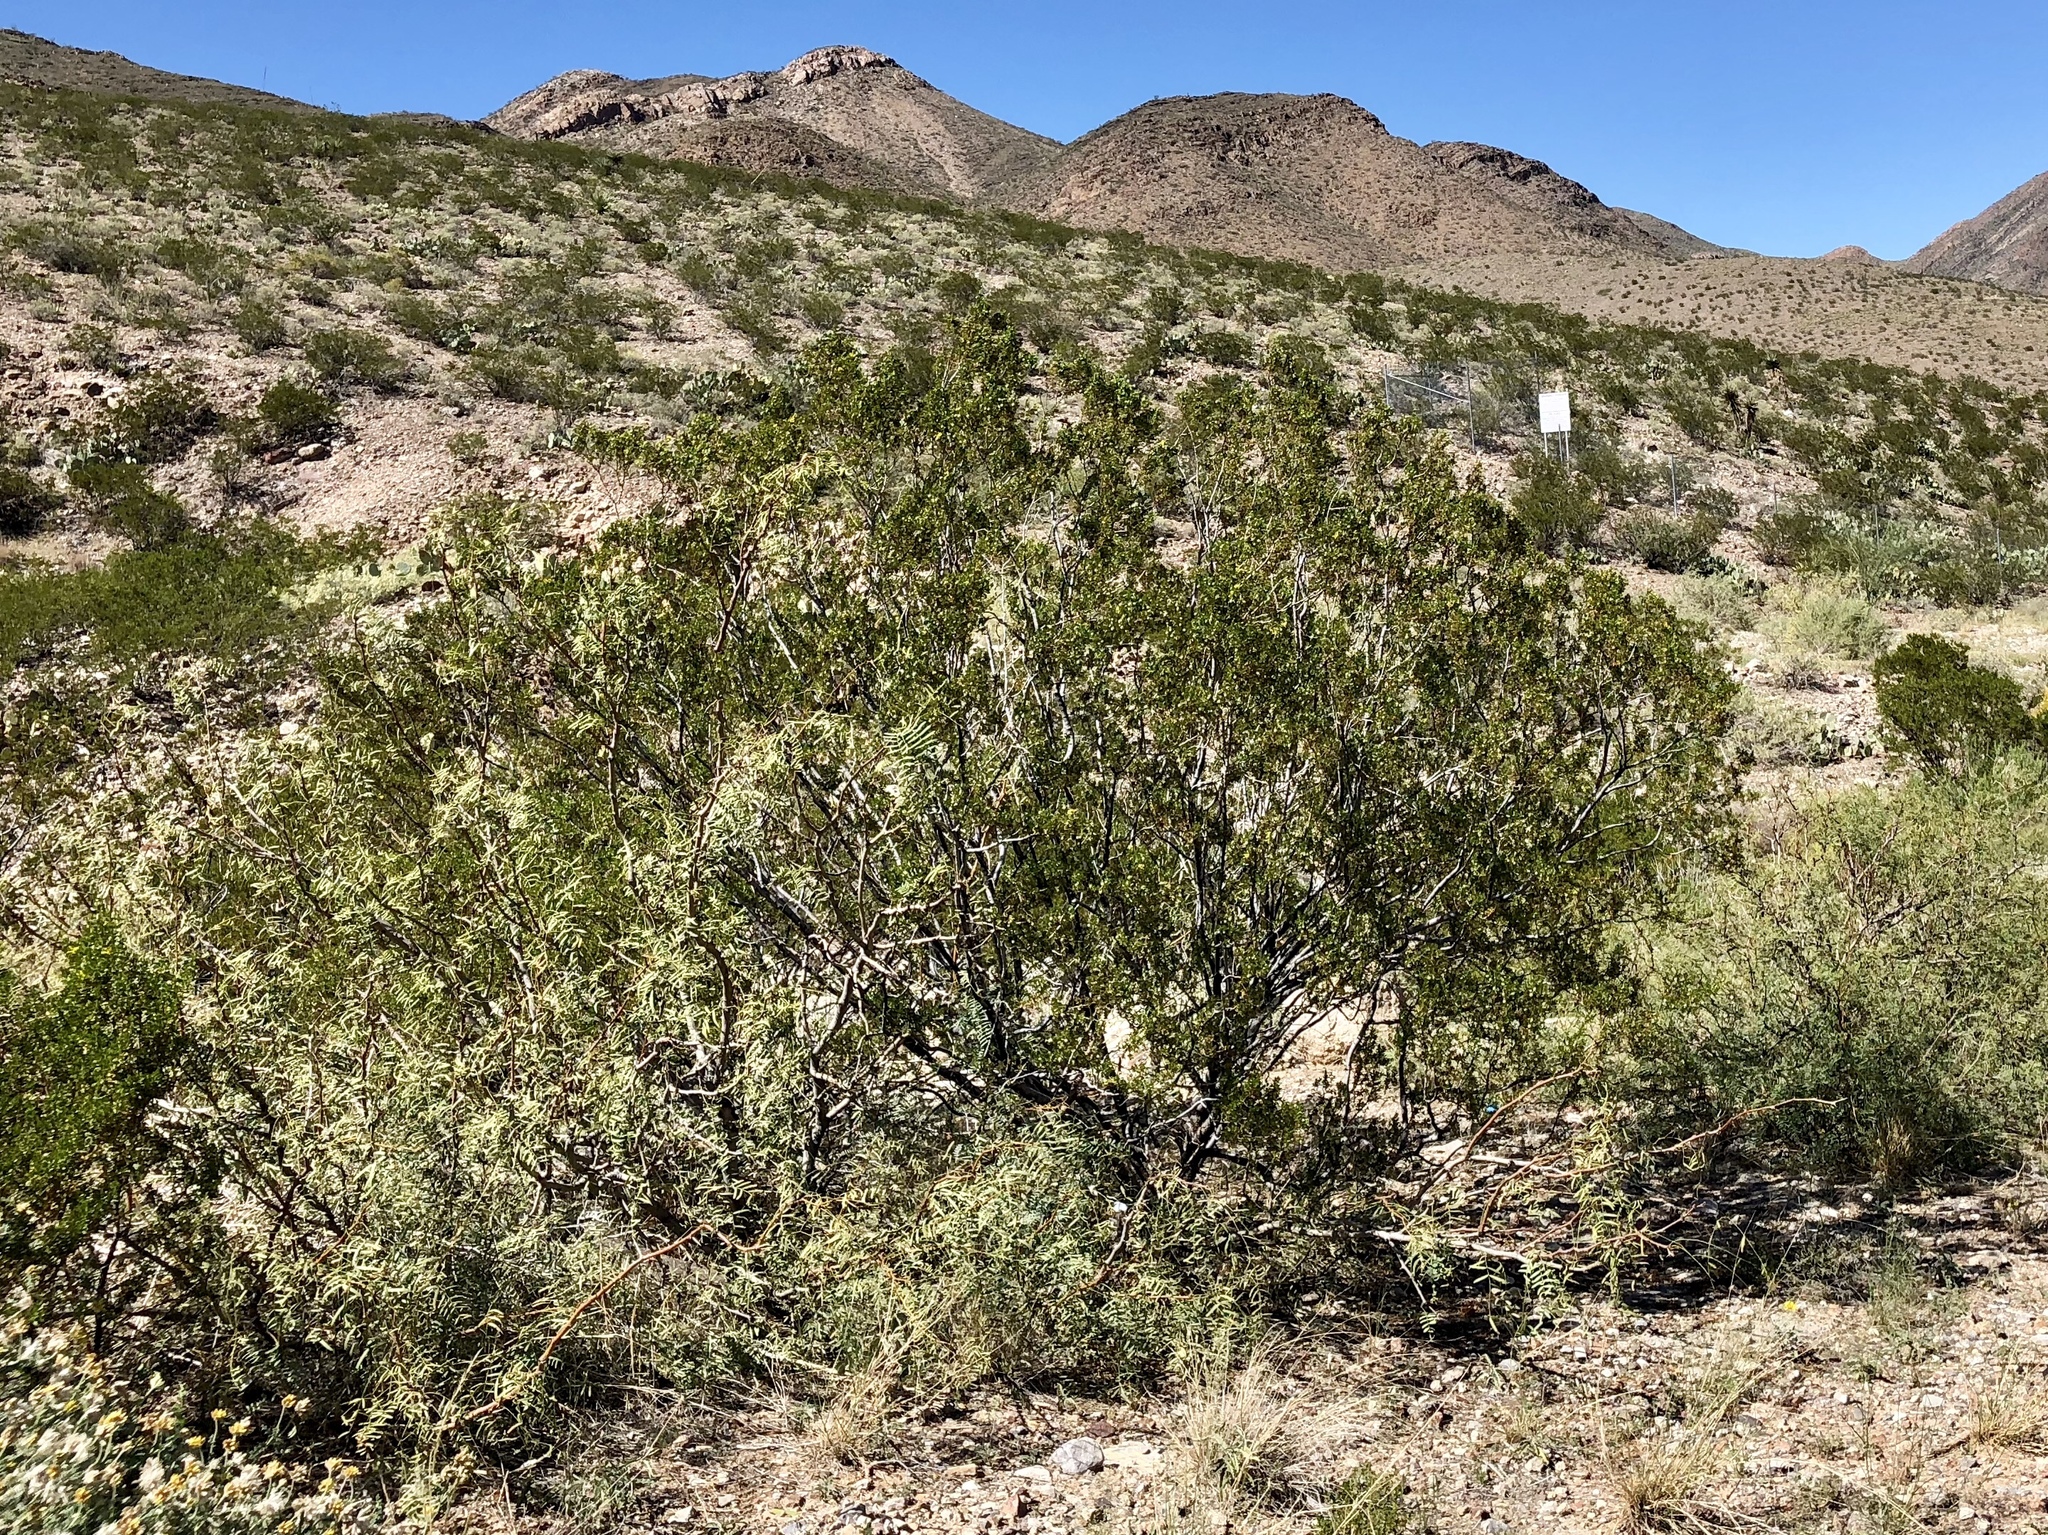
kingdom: Plantae
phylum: Tracheophyta
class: Magnoliopsida
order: Zygophyllales
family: Zygophyllaceae
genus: Larrea
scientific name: Larrea tridentata
